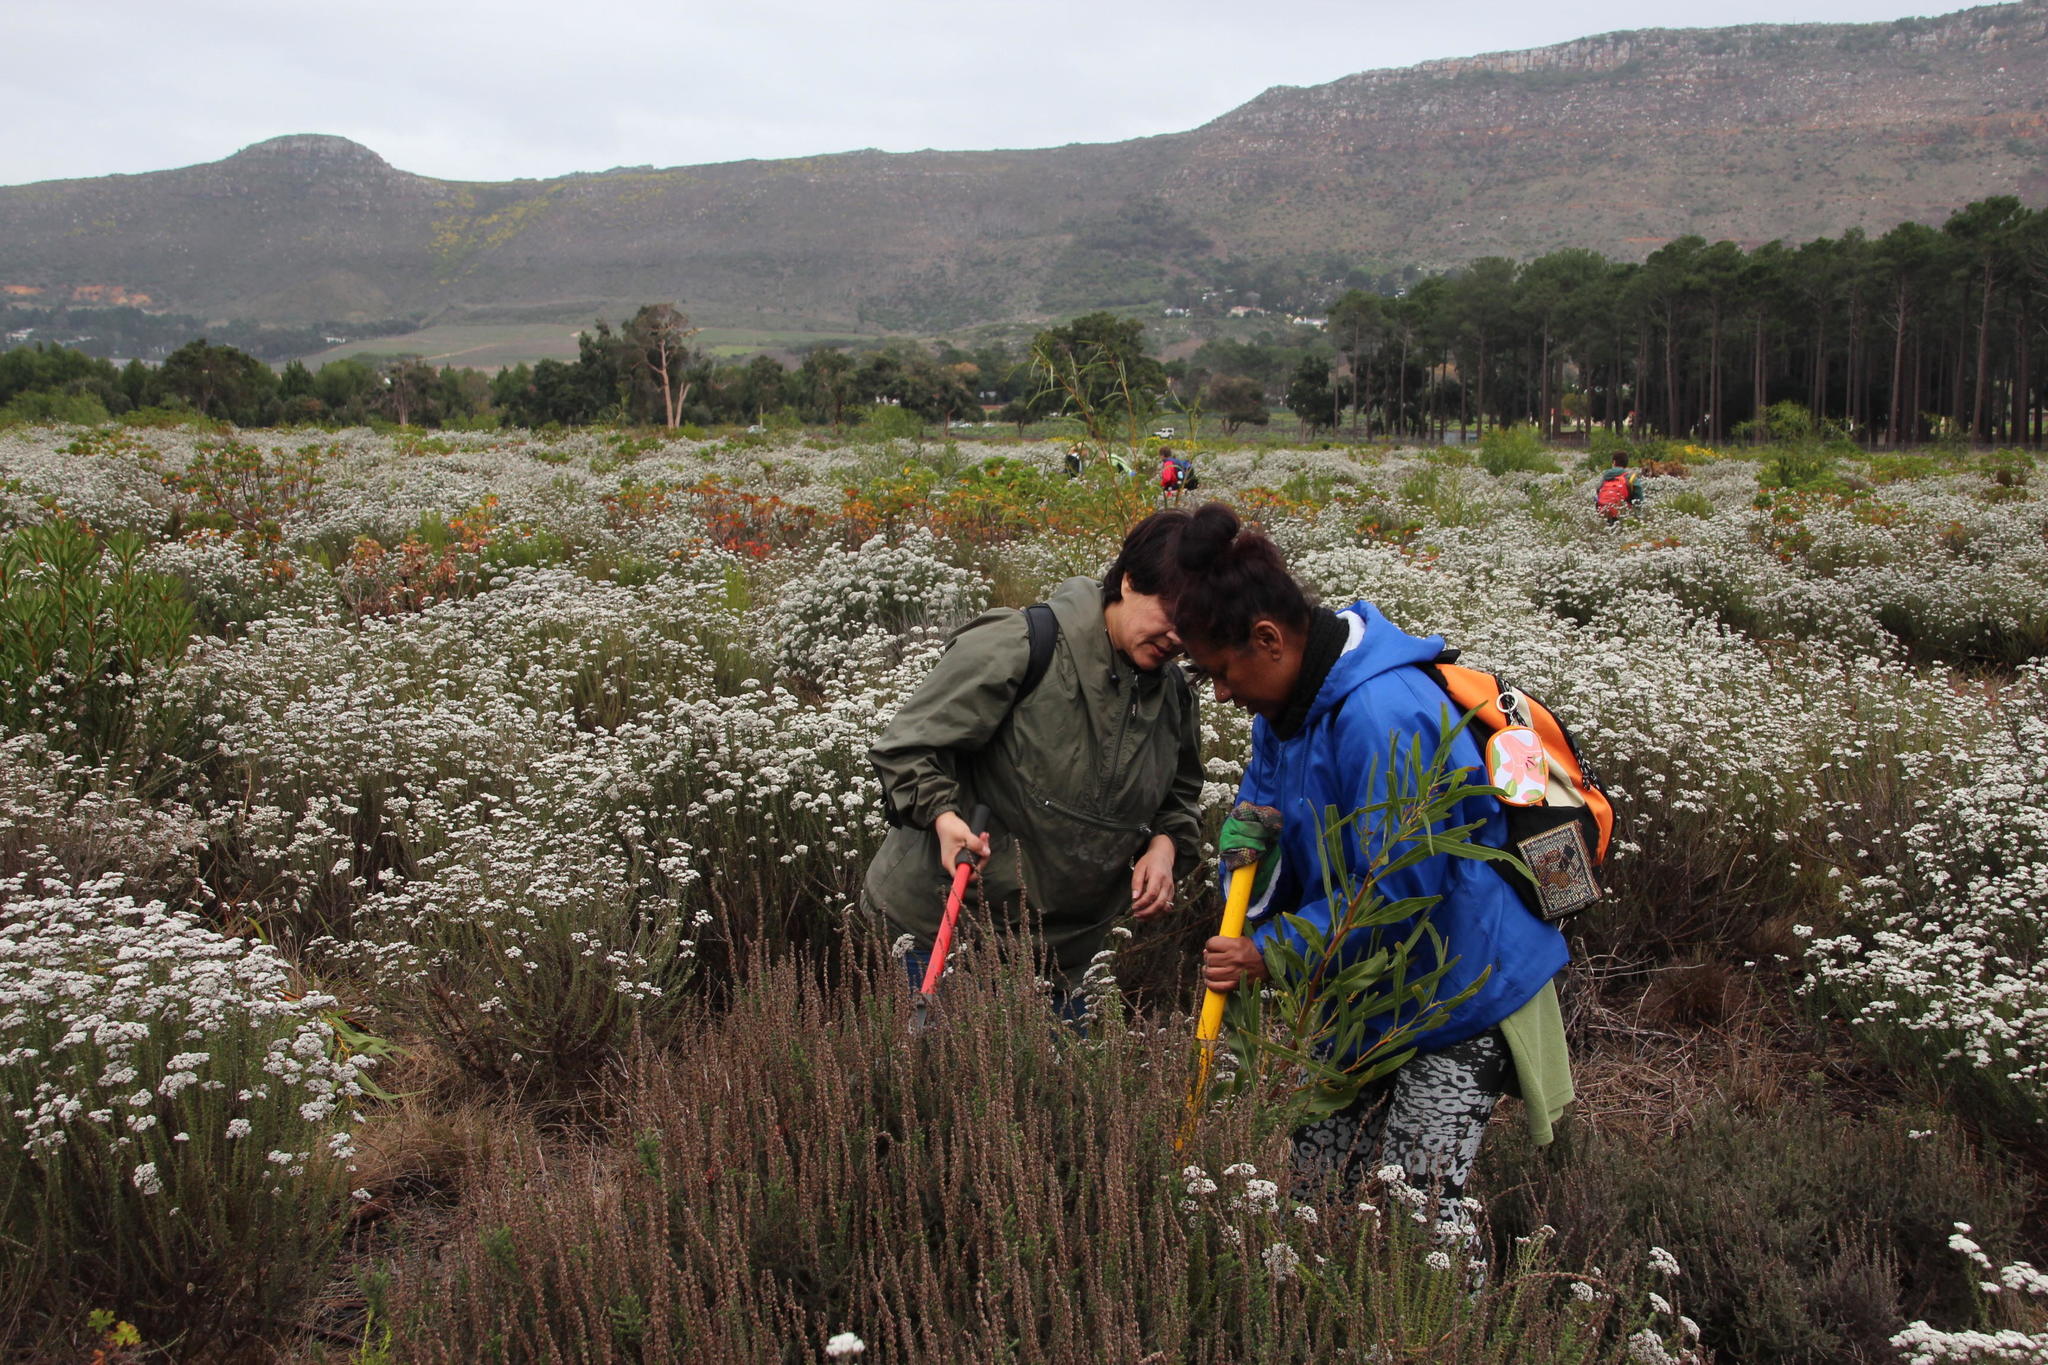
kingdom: Plantae
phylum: Tracheophyta
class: Magnoliopsida
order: Asterales
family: Asteraceae
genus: Seriphium
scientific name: Seriphium cinereum
